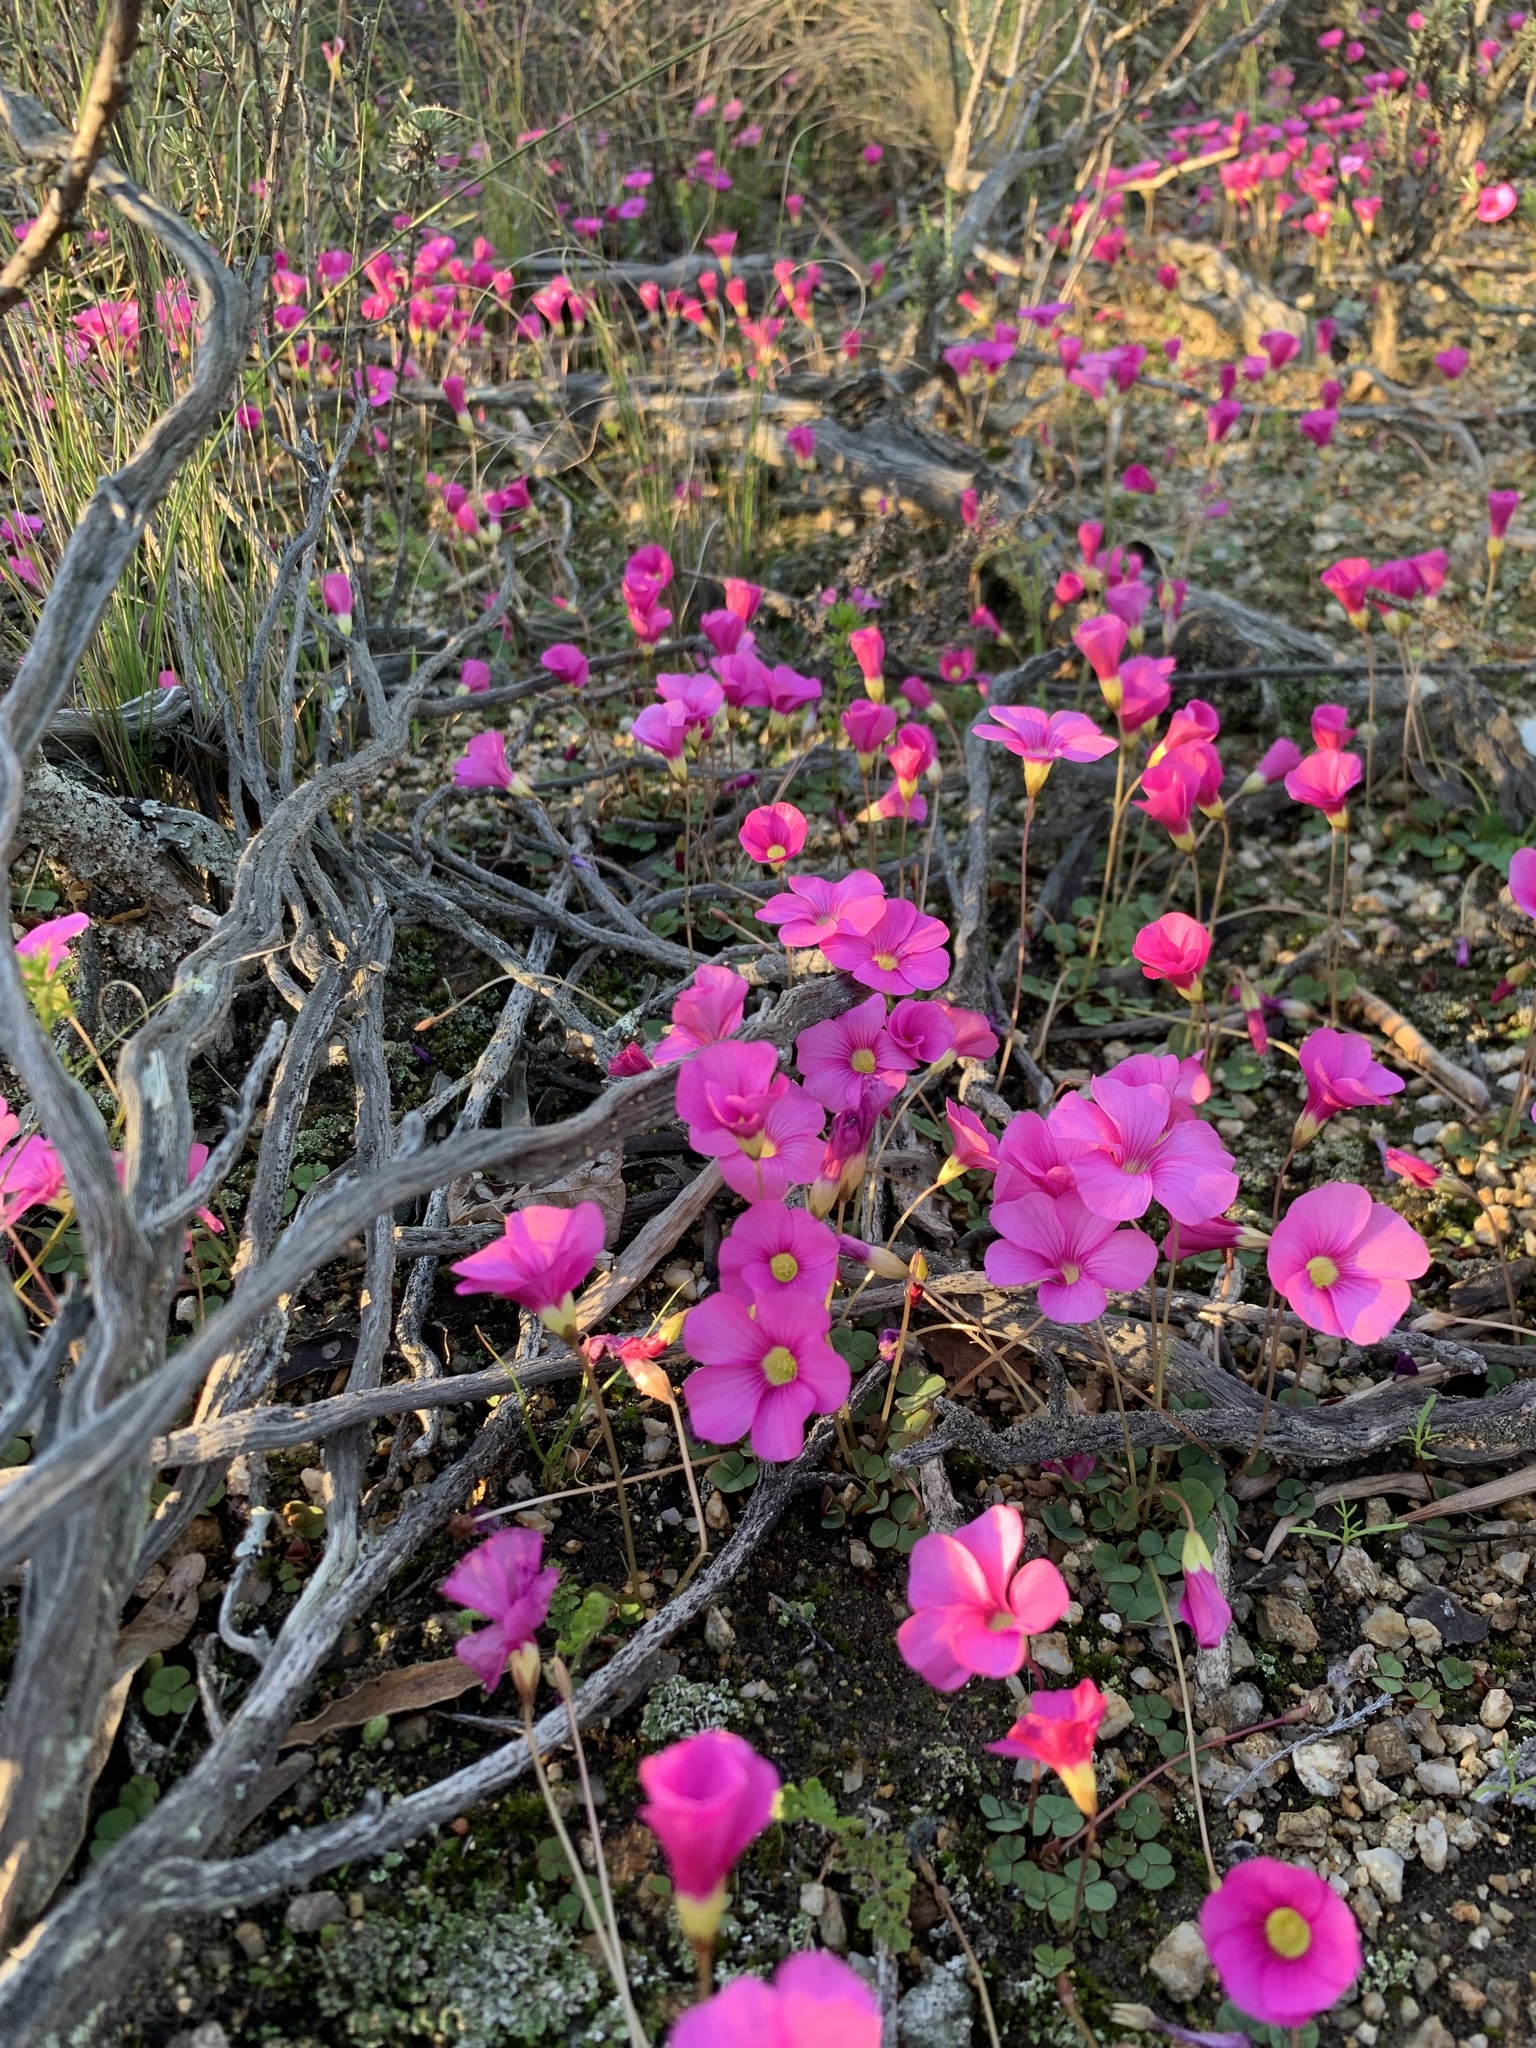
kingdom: Plantae
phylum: Tracheophyta
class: Magnoliopsida
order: Oxalidales
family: Oxalidaceae
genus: Oxalis
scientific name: Oxalis commutata
